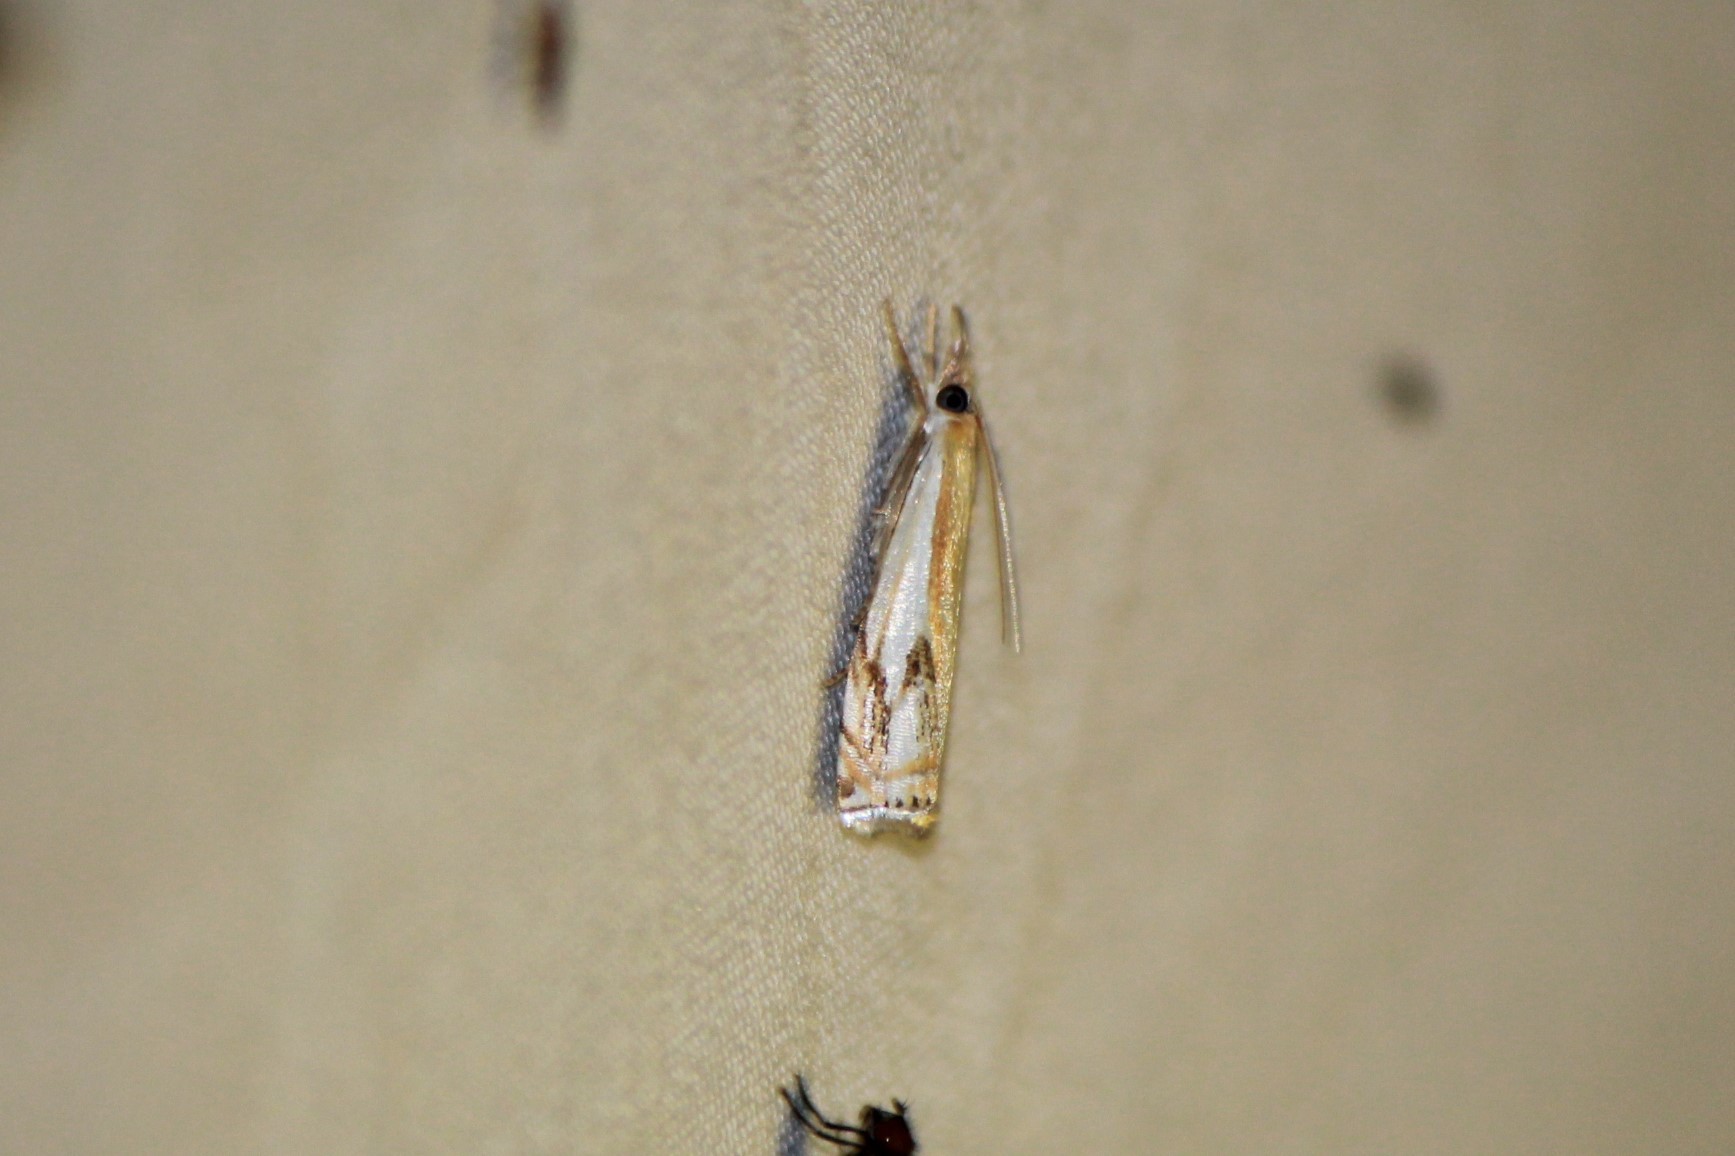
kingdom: Animalia
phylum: Arthropoda
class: Insecta
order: Lepidoptera
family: Crambidae
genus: Crambus
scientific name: Crambus agitatellus
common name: Double-banded grass-veneer
